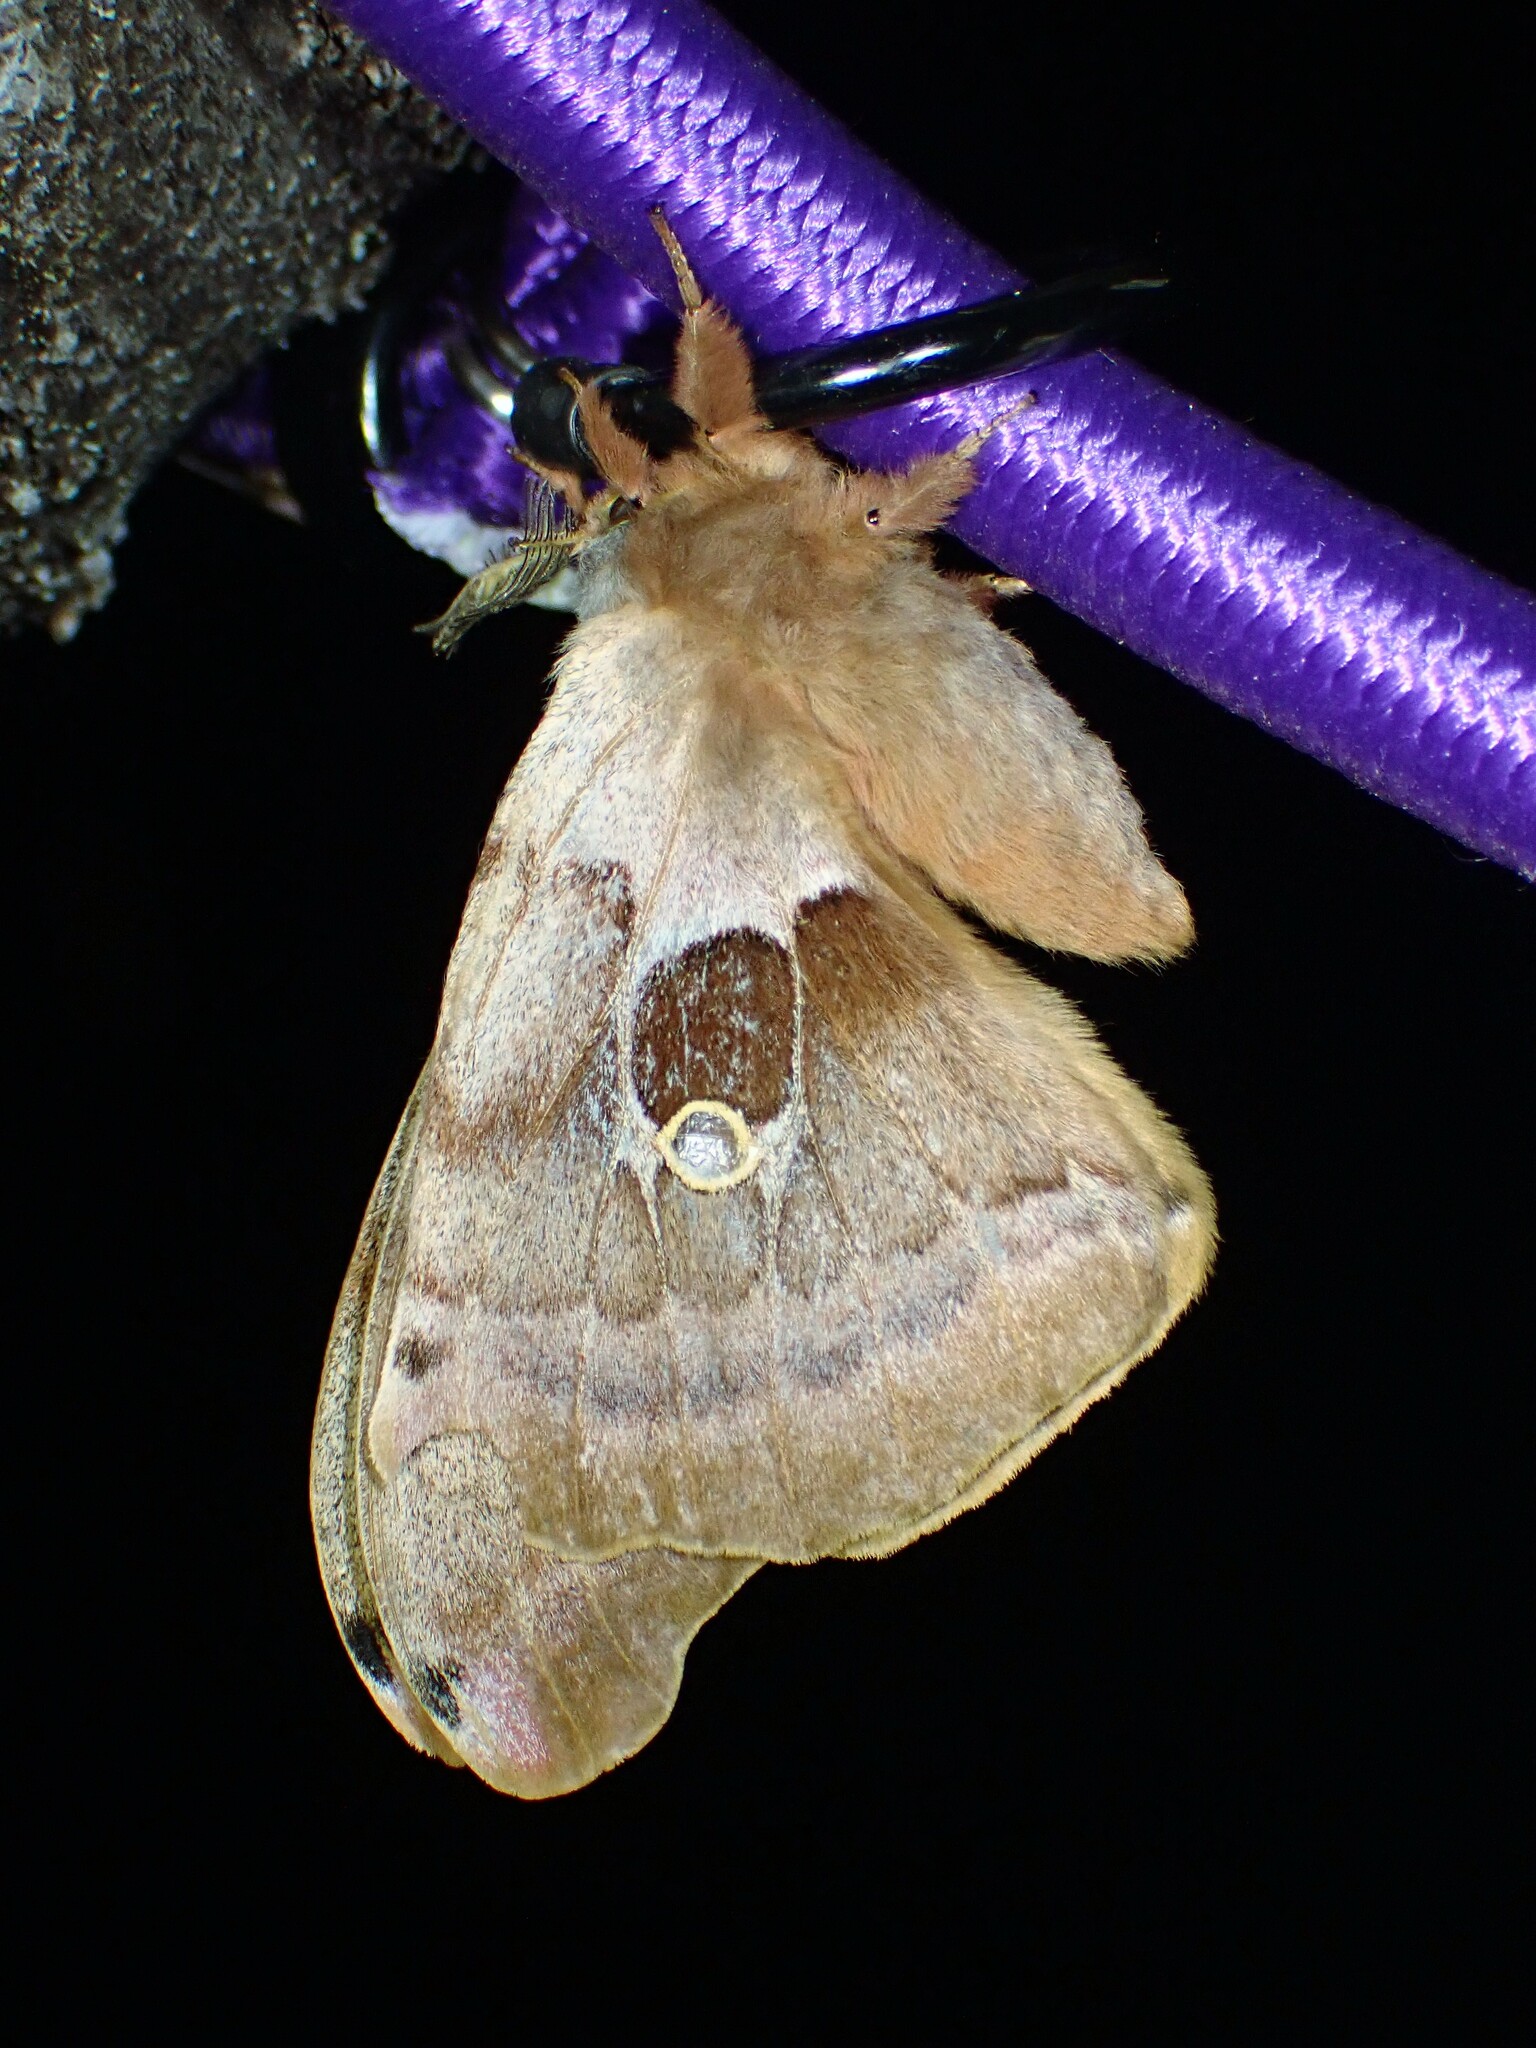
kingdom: Animalia
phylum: Arthropoda
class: Insecta
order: Lepidoptera
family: Saturniidae
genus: Antheraea
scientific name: Antheraea polyphemus
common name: Polyphemus moth
